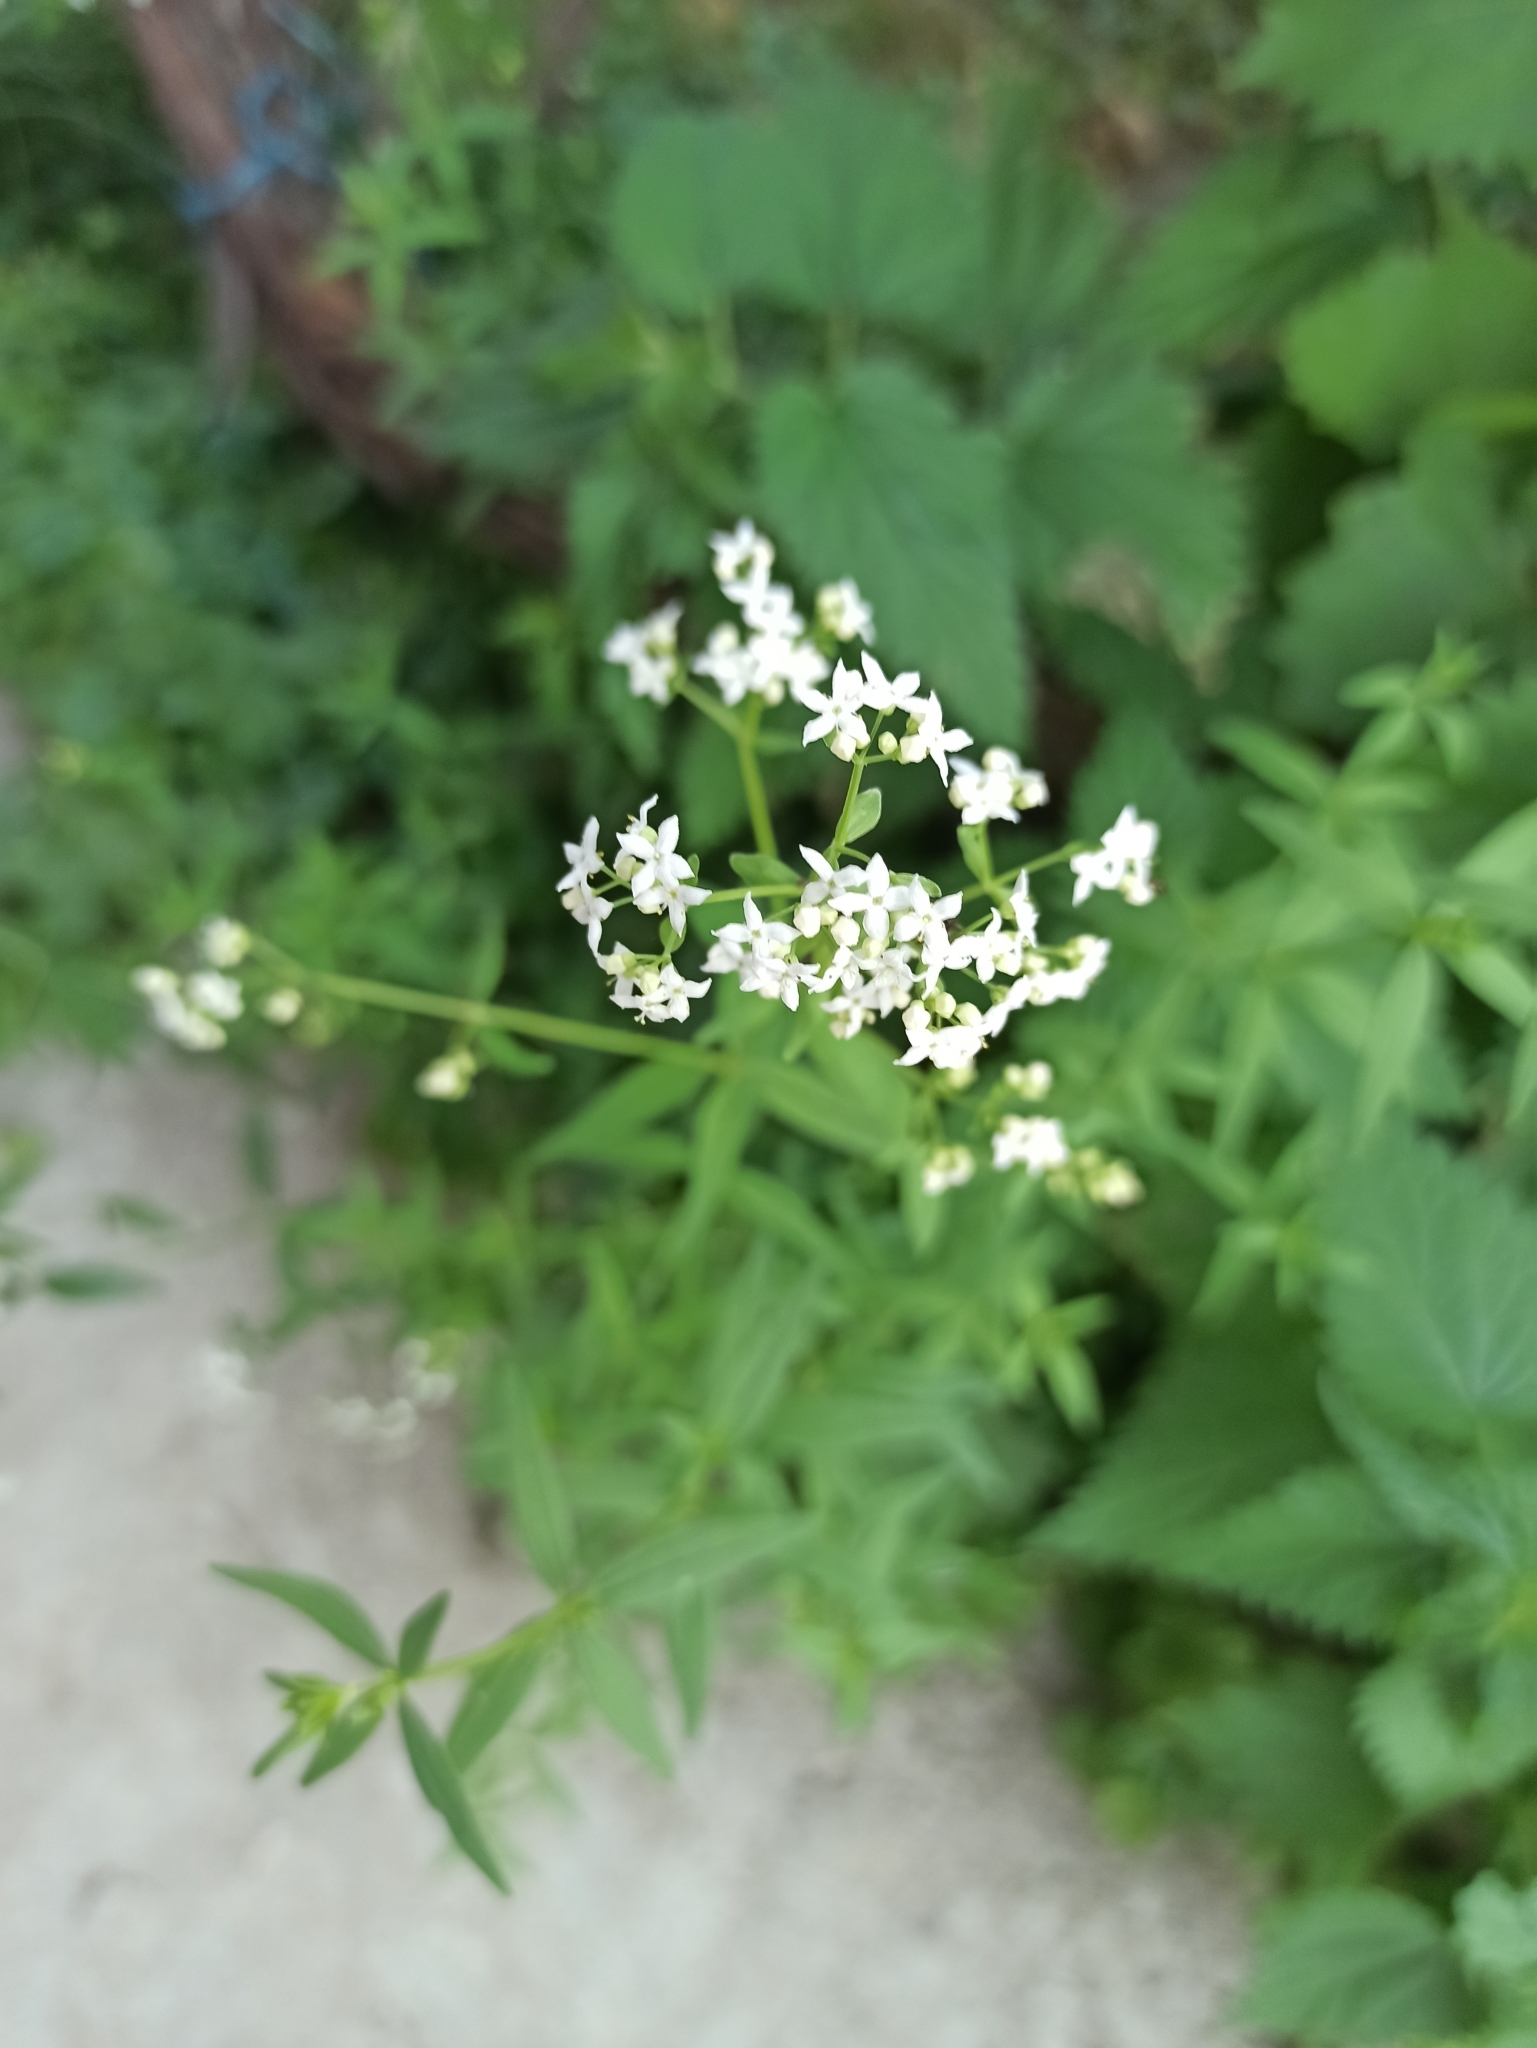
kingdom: Plantae
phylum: Tracheophyta
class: Magnoliopsida
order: Gentianales
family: Rubiaceae
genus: Galium
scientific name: Galium boreale
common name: Northern bedstraw
